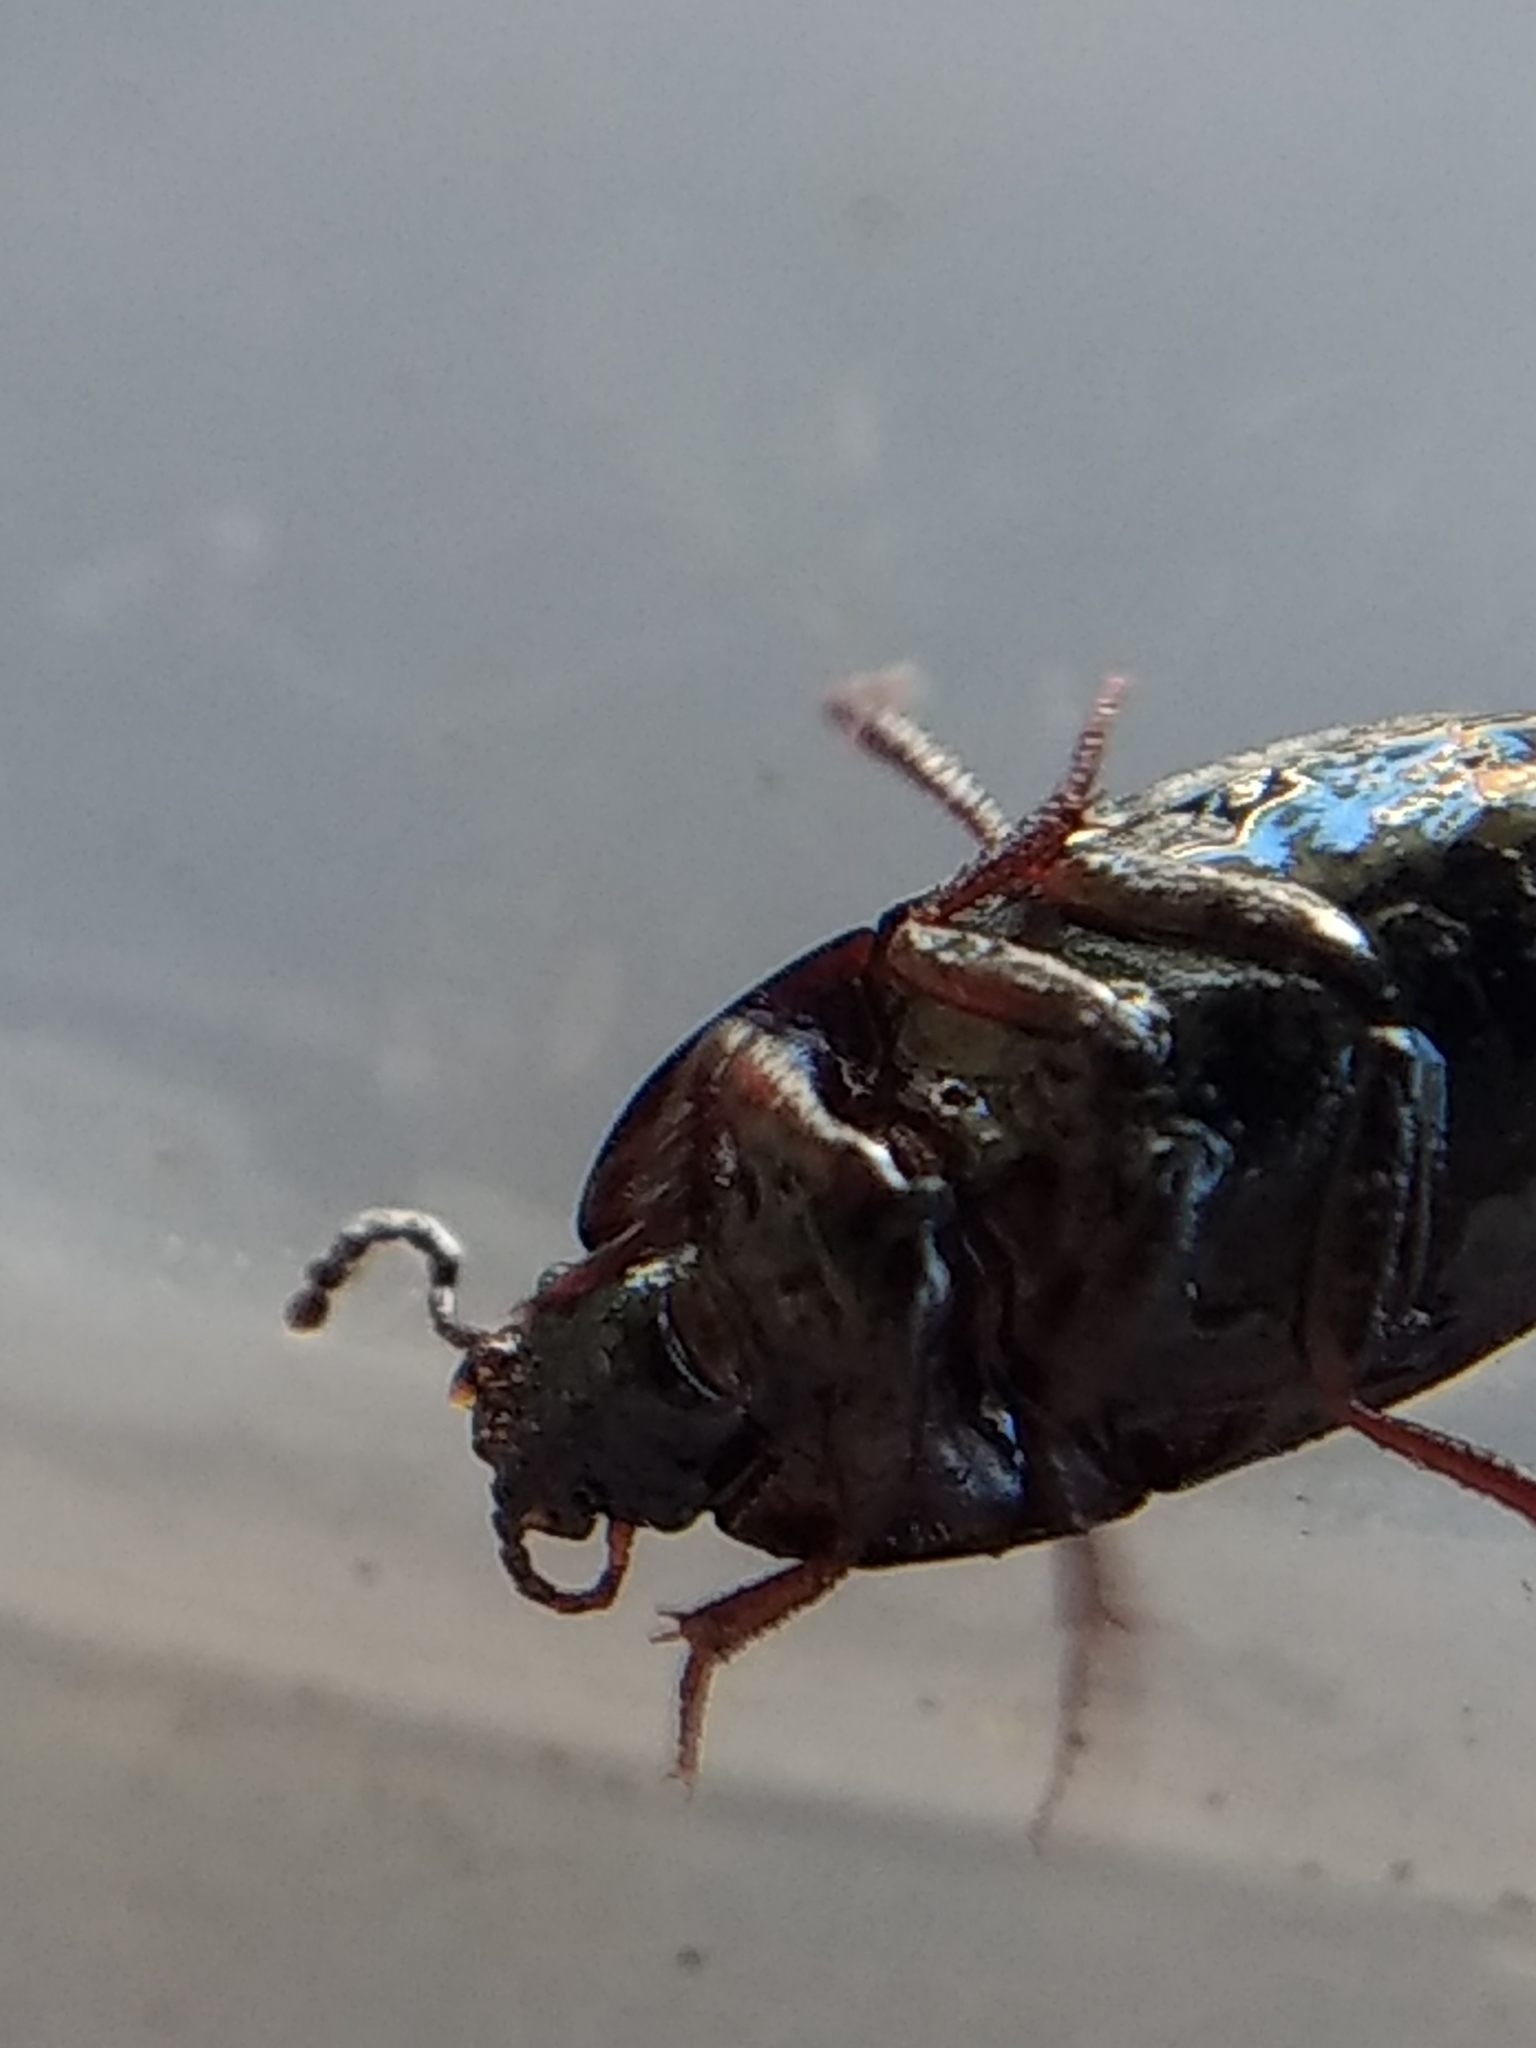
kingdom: Animalia
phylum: Arthropoda
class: Insecta
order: Coleoptera
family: Tenebrionidae
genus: Gondwanocrypticus
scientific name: Gondwanocrypticus platensis
